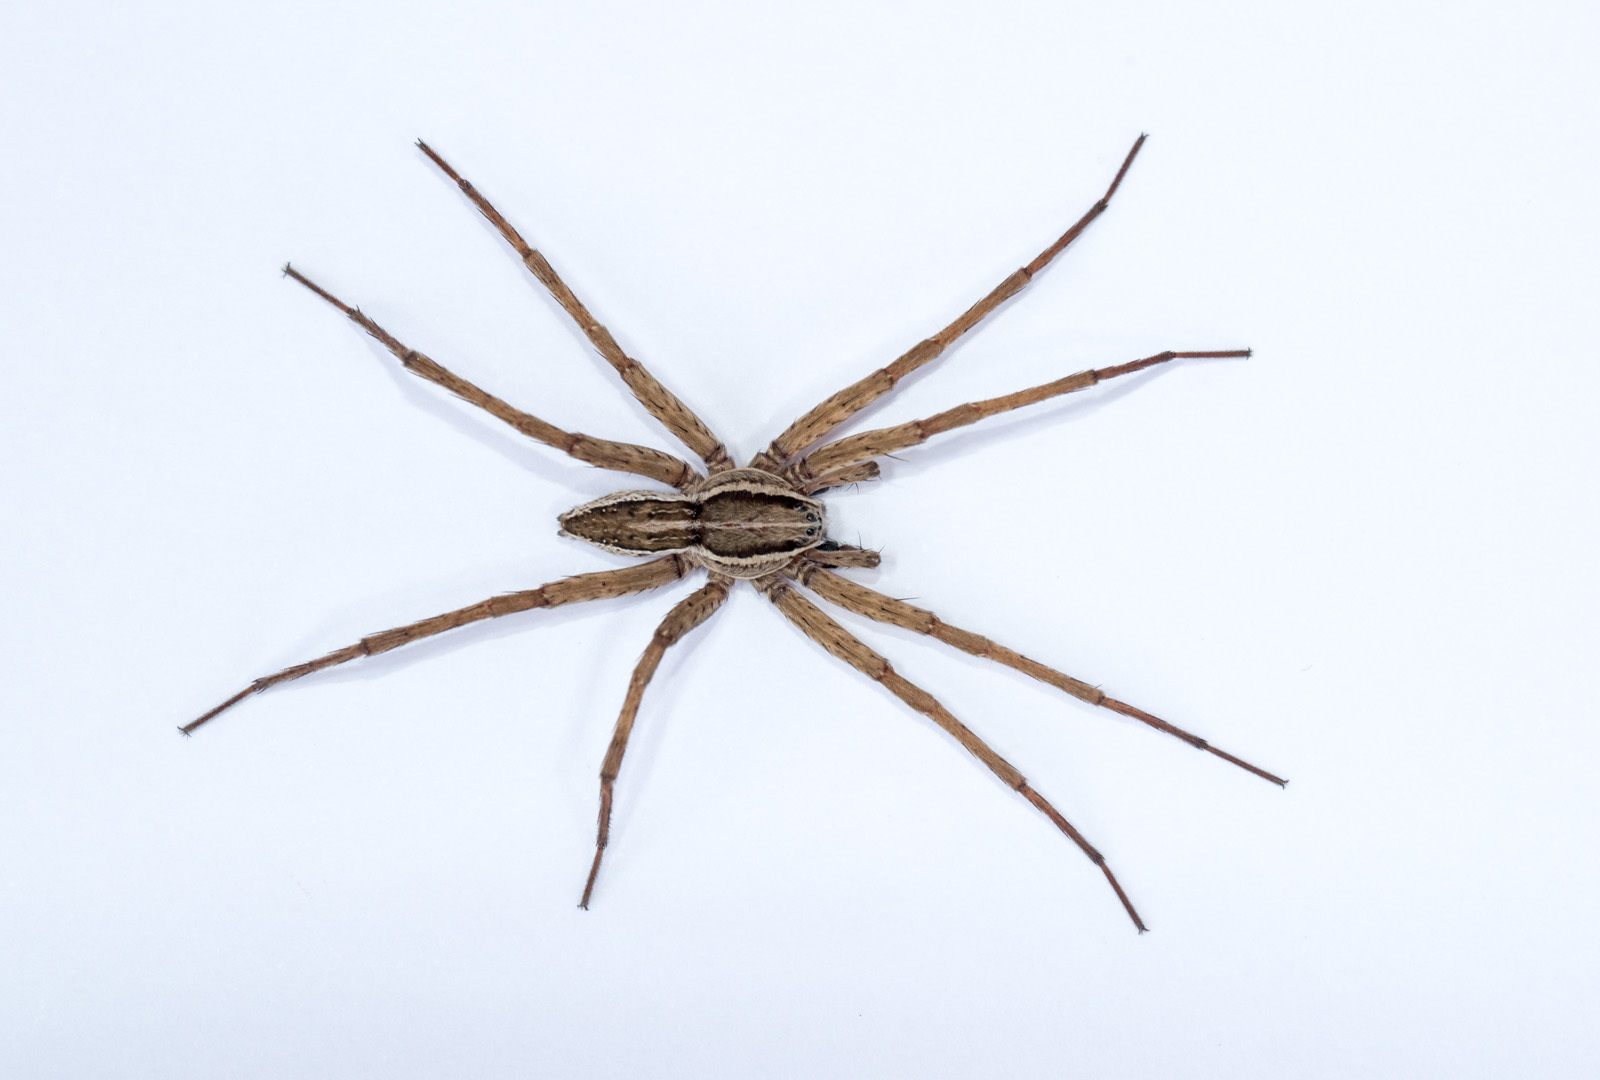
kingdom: Animalia
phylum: Arthropoda
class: Arachnida
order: Araneae
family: Pisauridae
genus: Dolomedes
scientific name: Dolomedes minor
